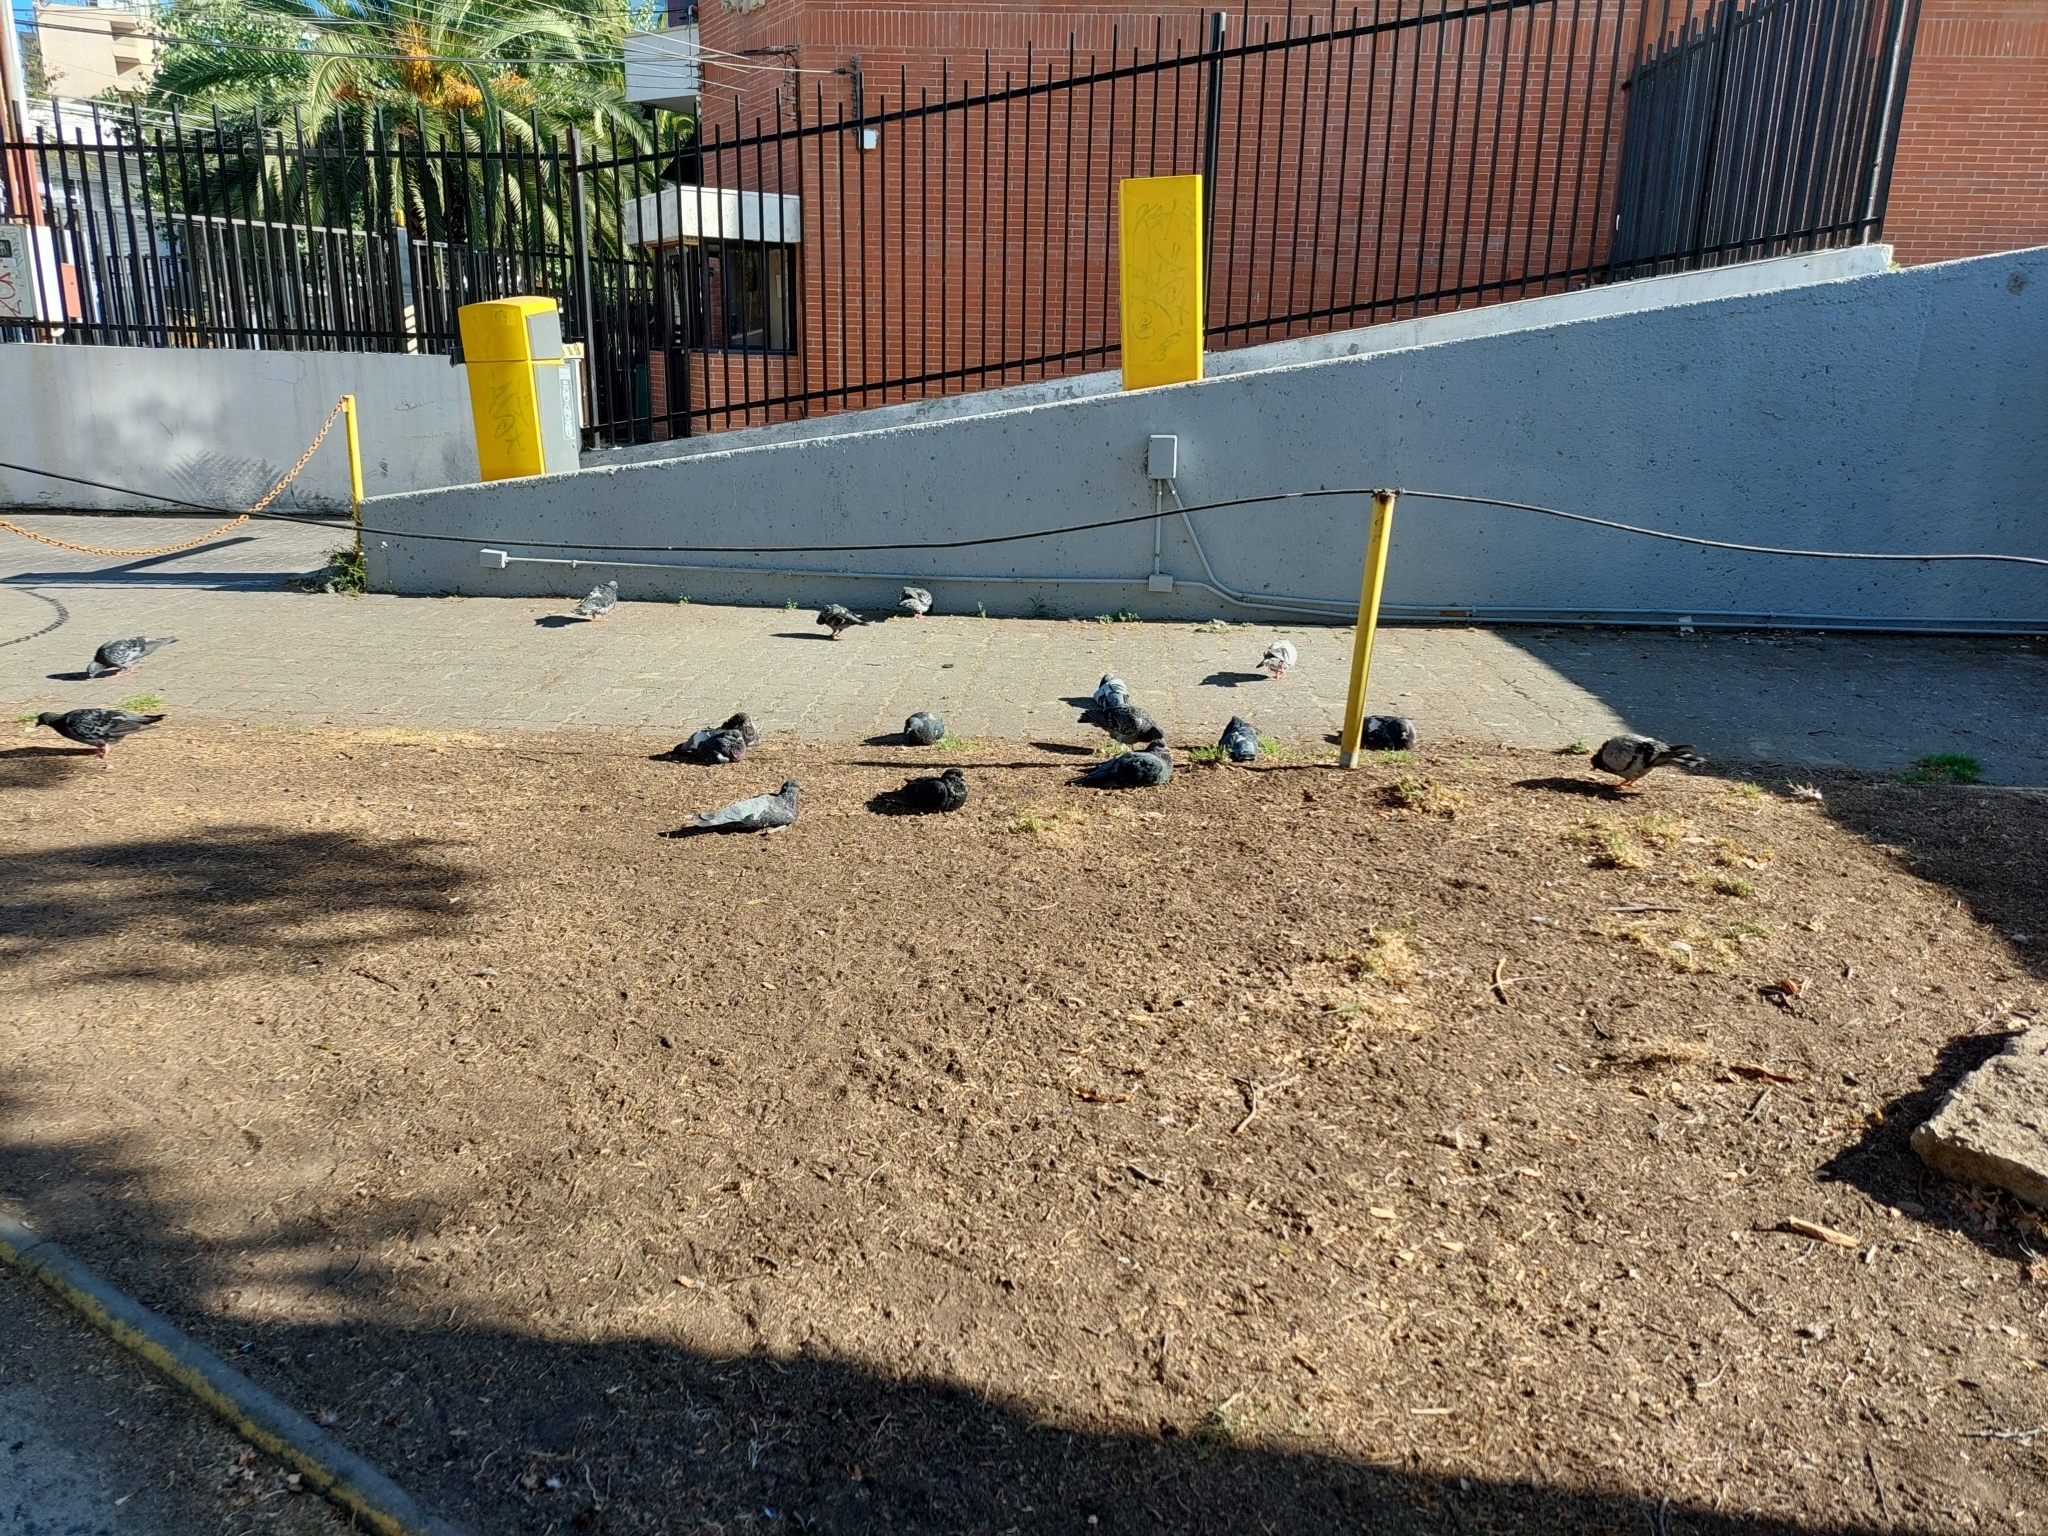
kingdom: Animalia
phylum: Chordata
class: Aves
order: Columbiformes
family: Columbidae
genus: Columba
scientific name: Columba livia
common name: Rock pigeon
